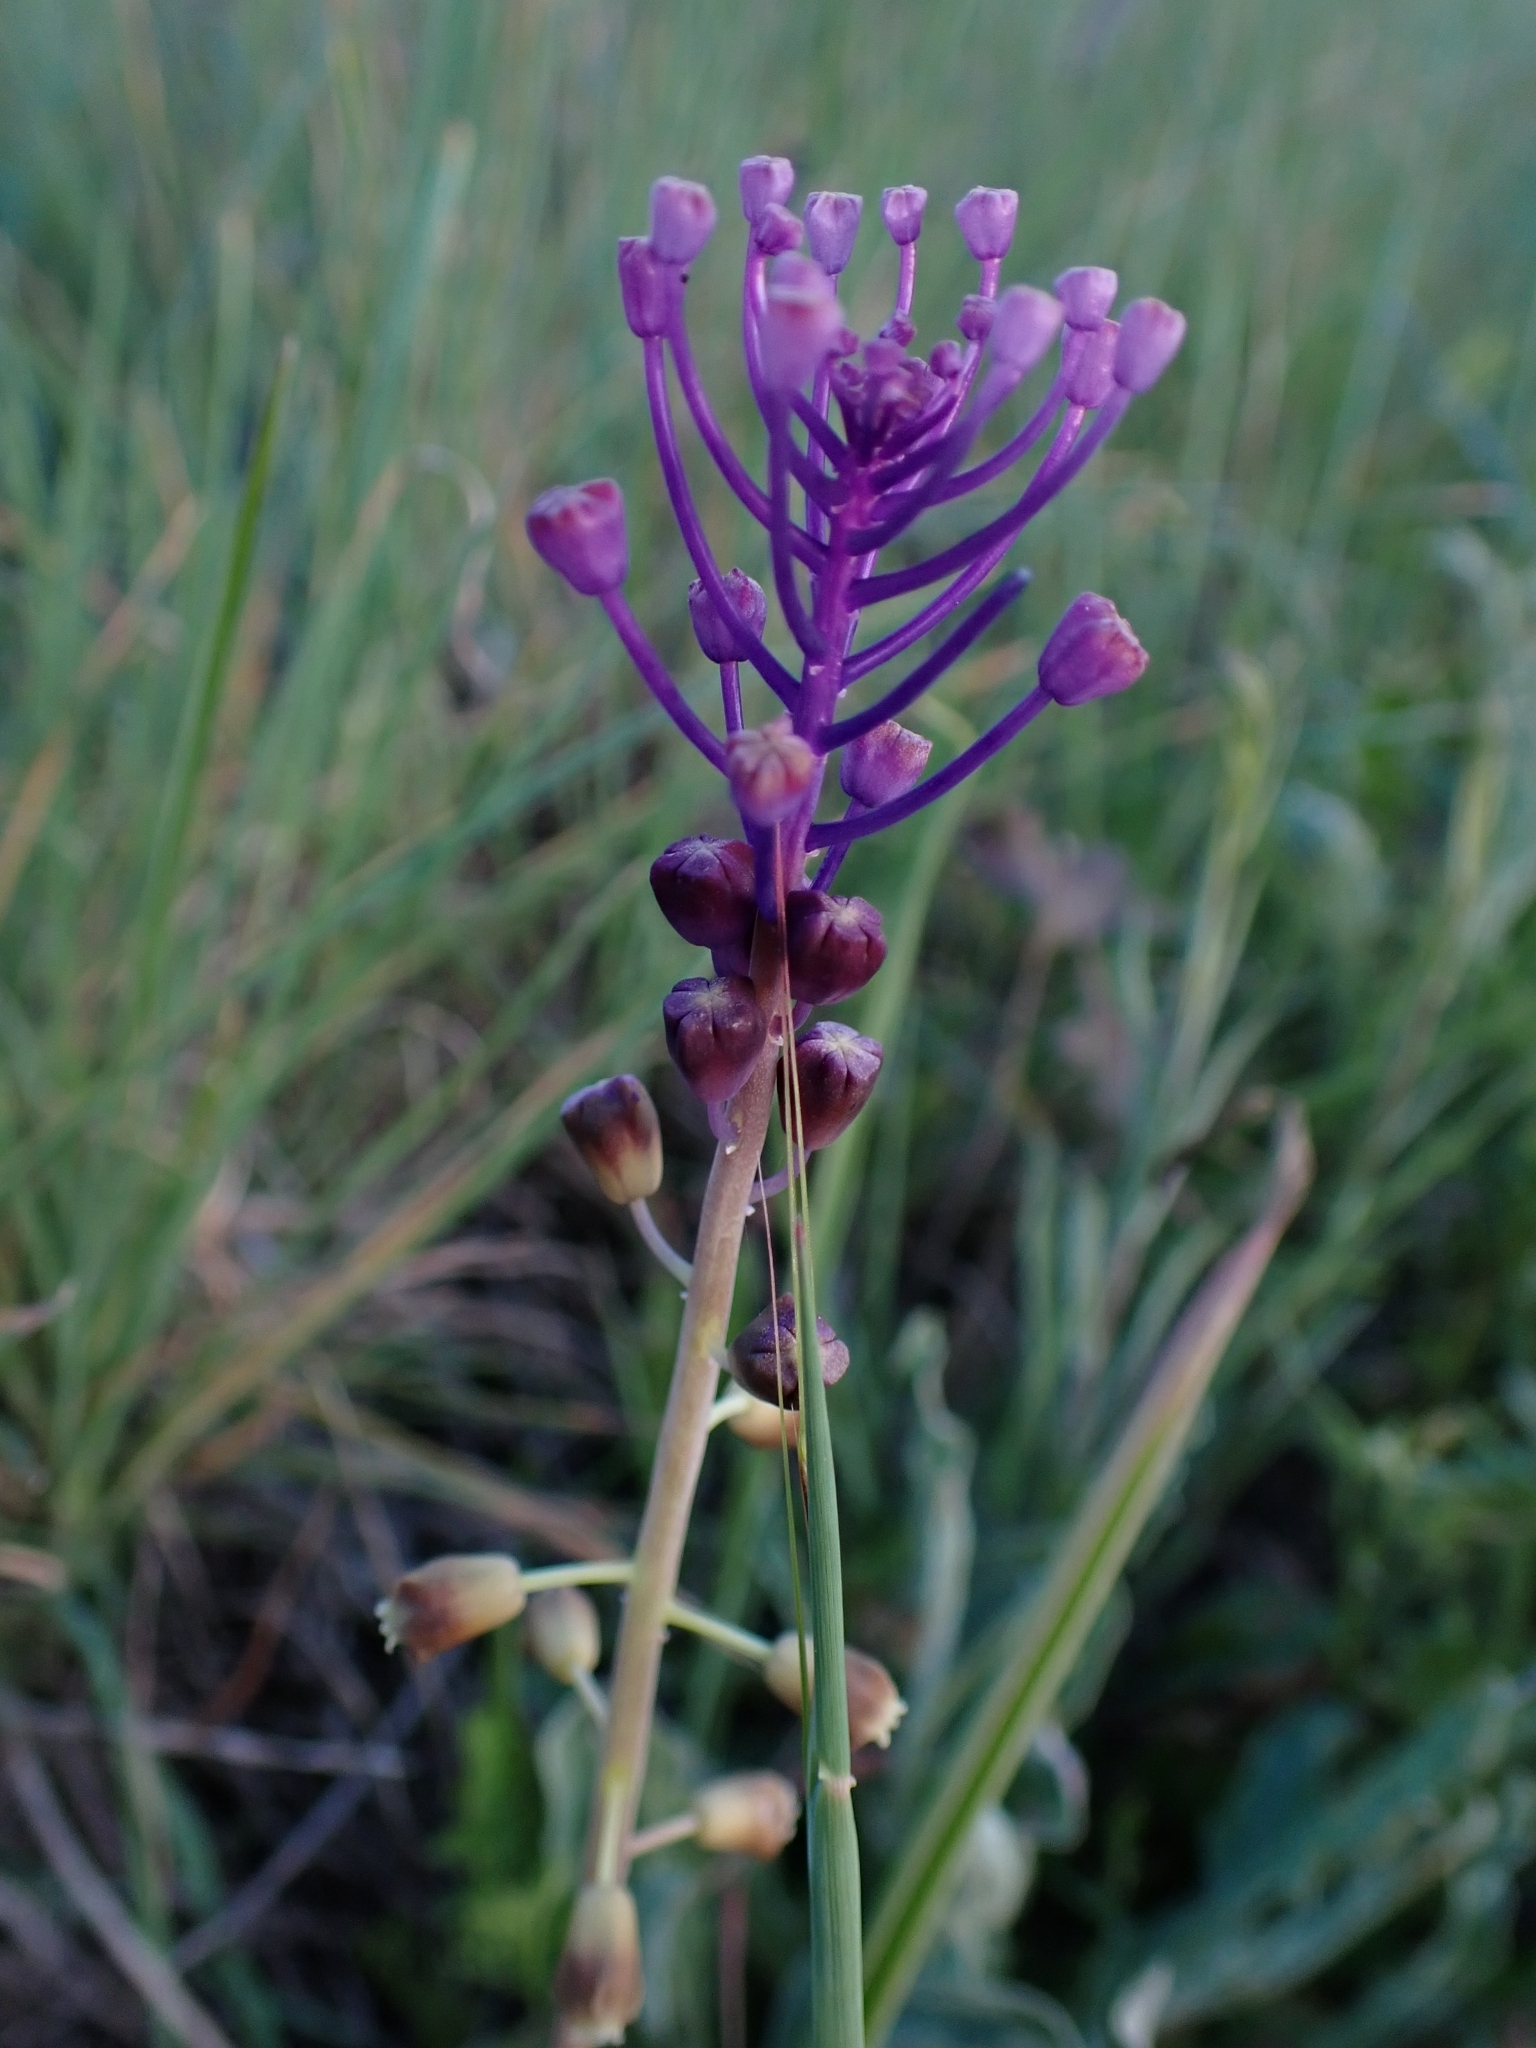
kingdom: Plantae
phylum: Tracheophyta
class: Liliopsida
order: Asparagales
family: Asparagaceae
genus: Muscari
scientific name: Muscari comosum
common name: Tassel hyacinth
